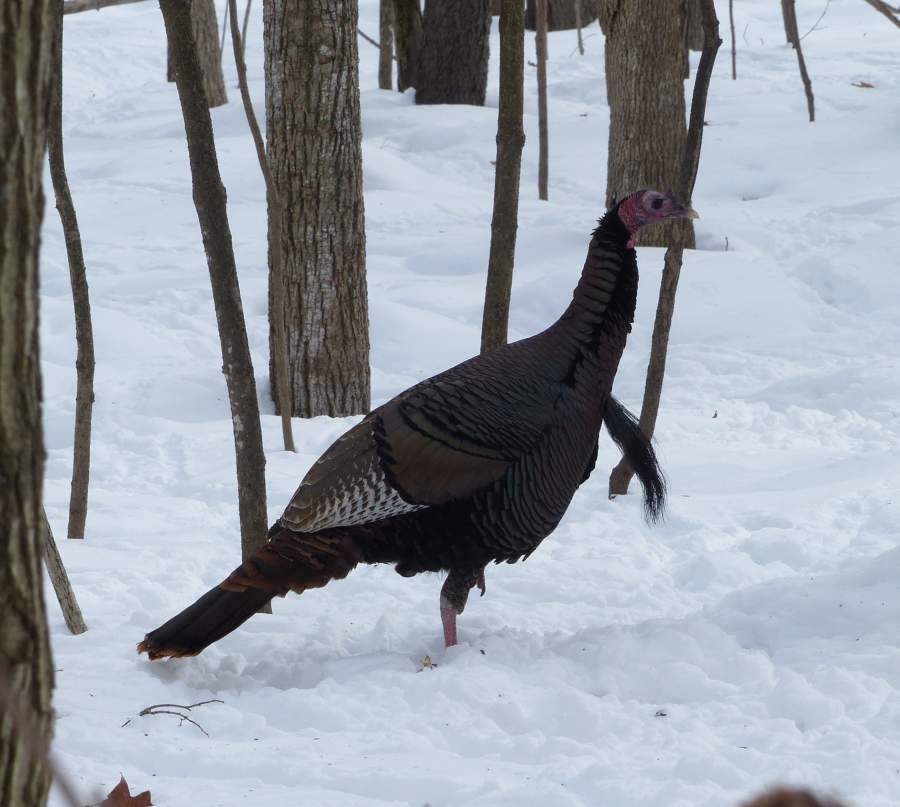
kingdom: Animalia
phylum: Chordata
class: Aves
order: Galliformes
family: Phasianidae
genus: Meleagris
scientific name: Meleagris gallopavo
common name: Wild turkey
